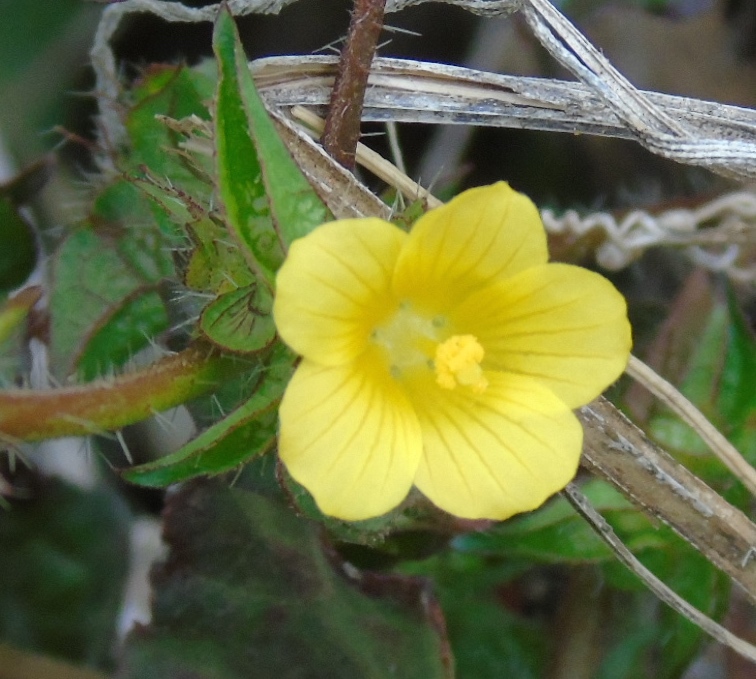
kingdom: Plantae
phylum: Tracheophyta
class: Magnoliopsida
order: Malvales
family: Malvaceae
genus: Malachra
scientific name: Malachra alceifolia
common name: Yellow leafbract
